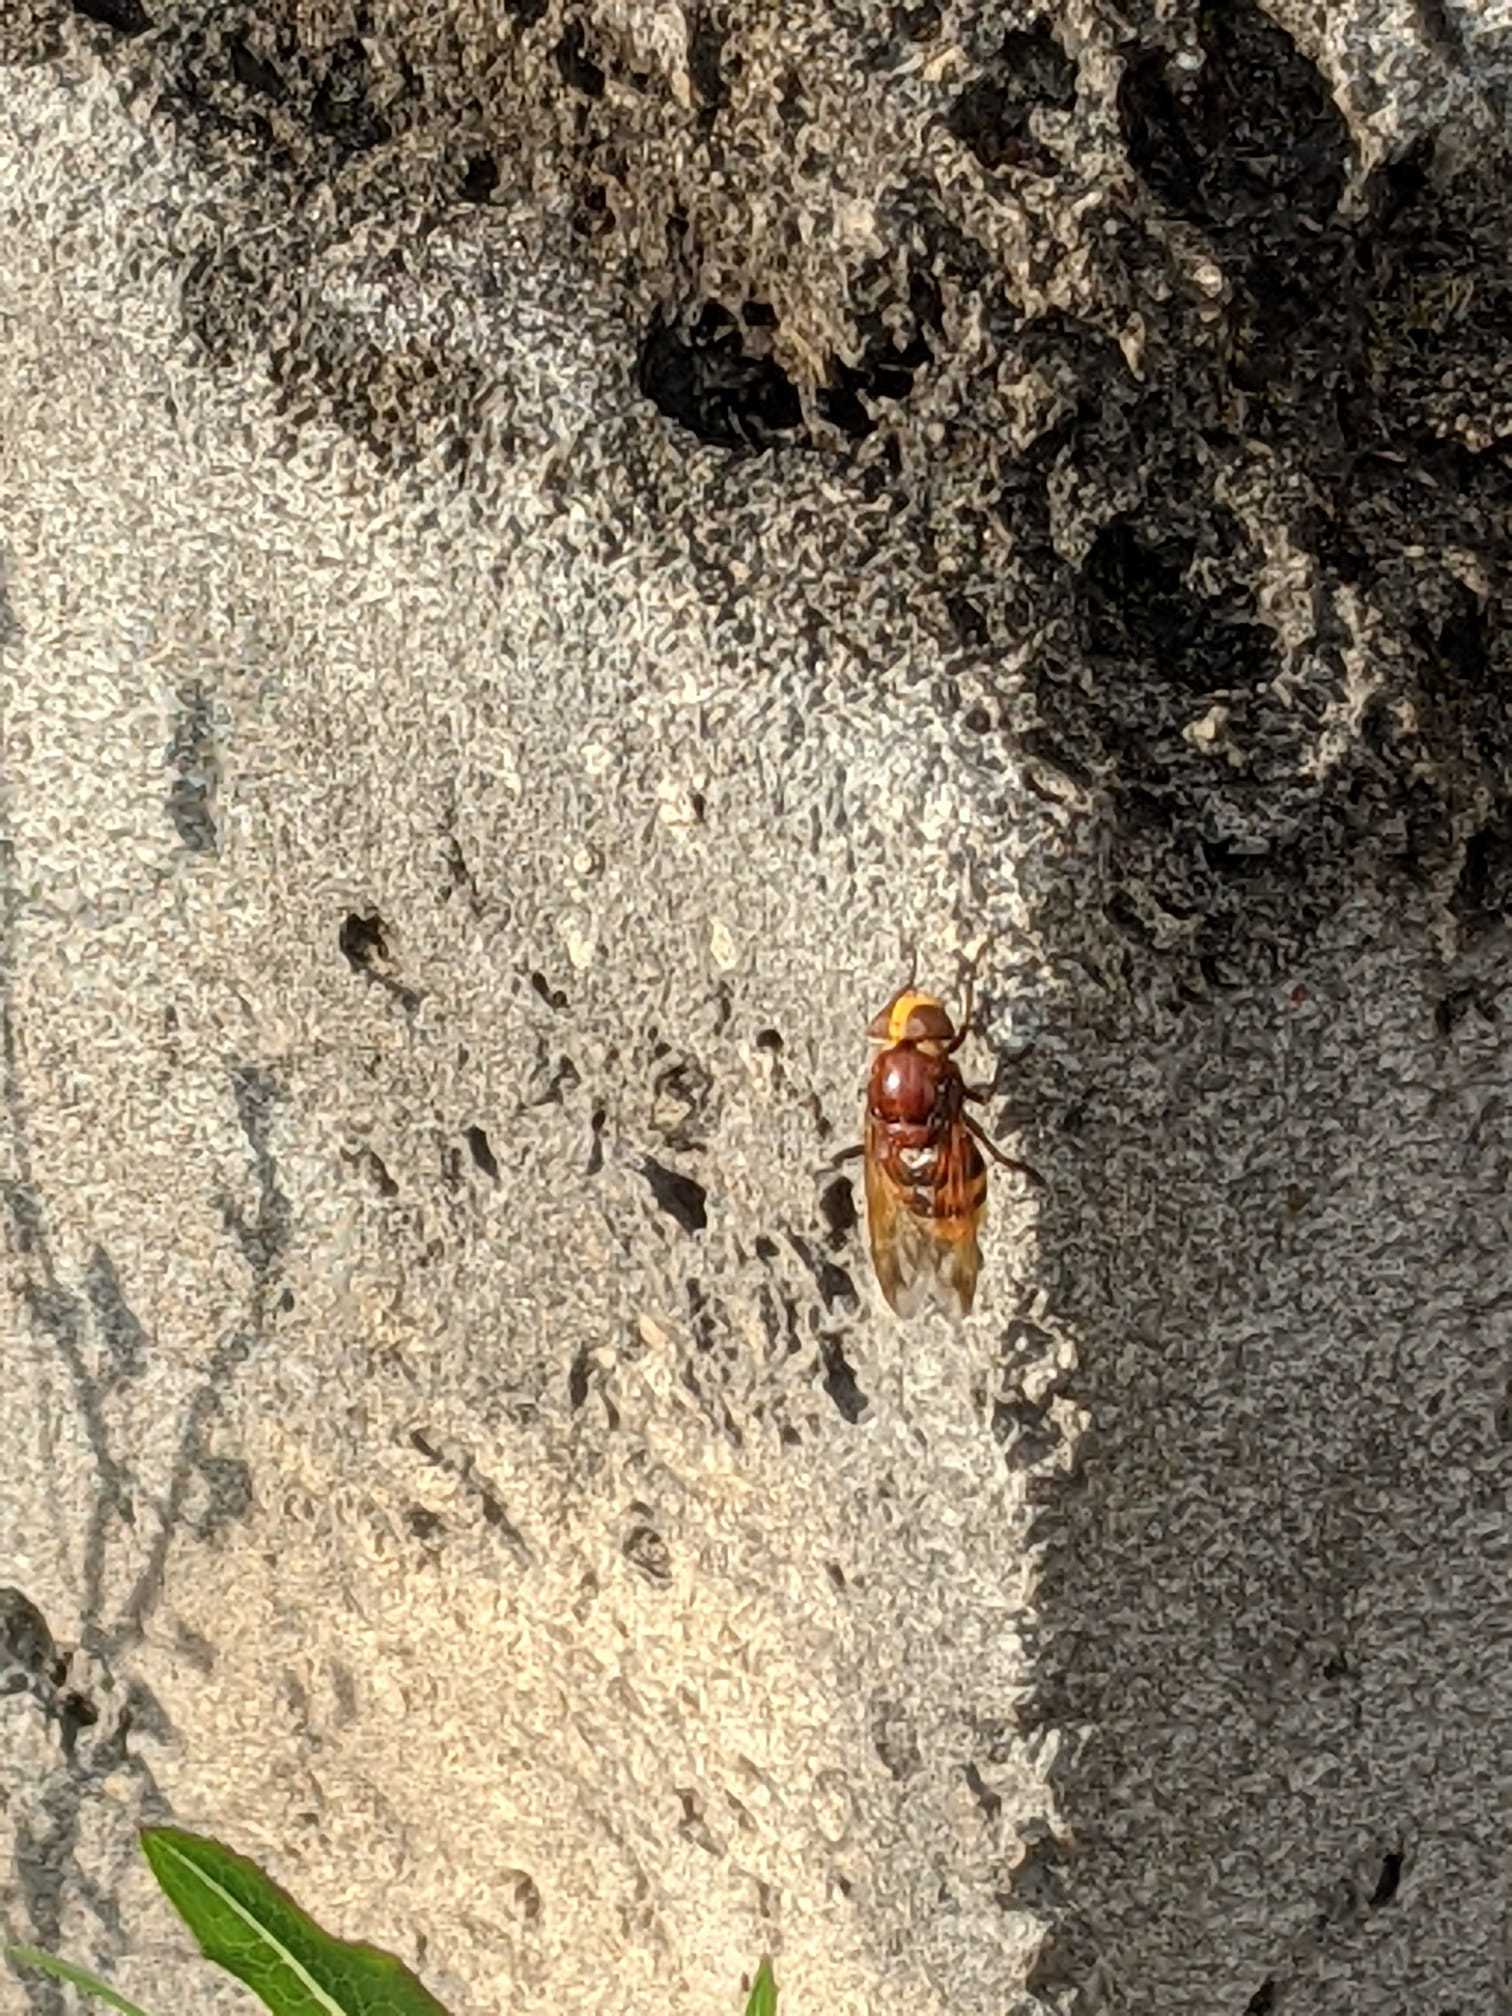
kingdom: Animalia
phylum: Arthropoda
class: Insecta
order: Diptera
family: Syrphidae
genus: Volucella
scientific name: Volucella zonaria
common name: Hornet hoverfly
